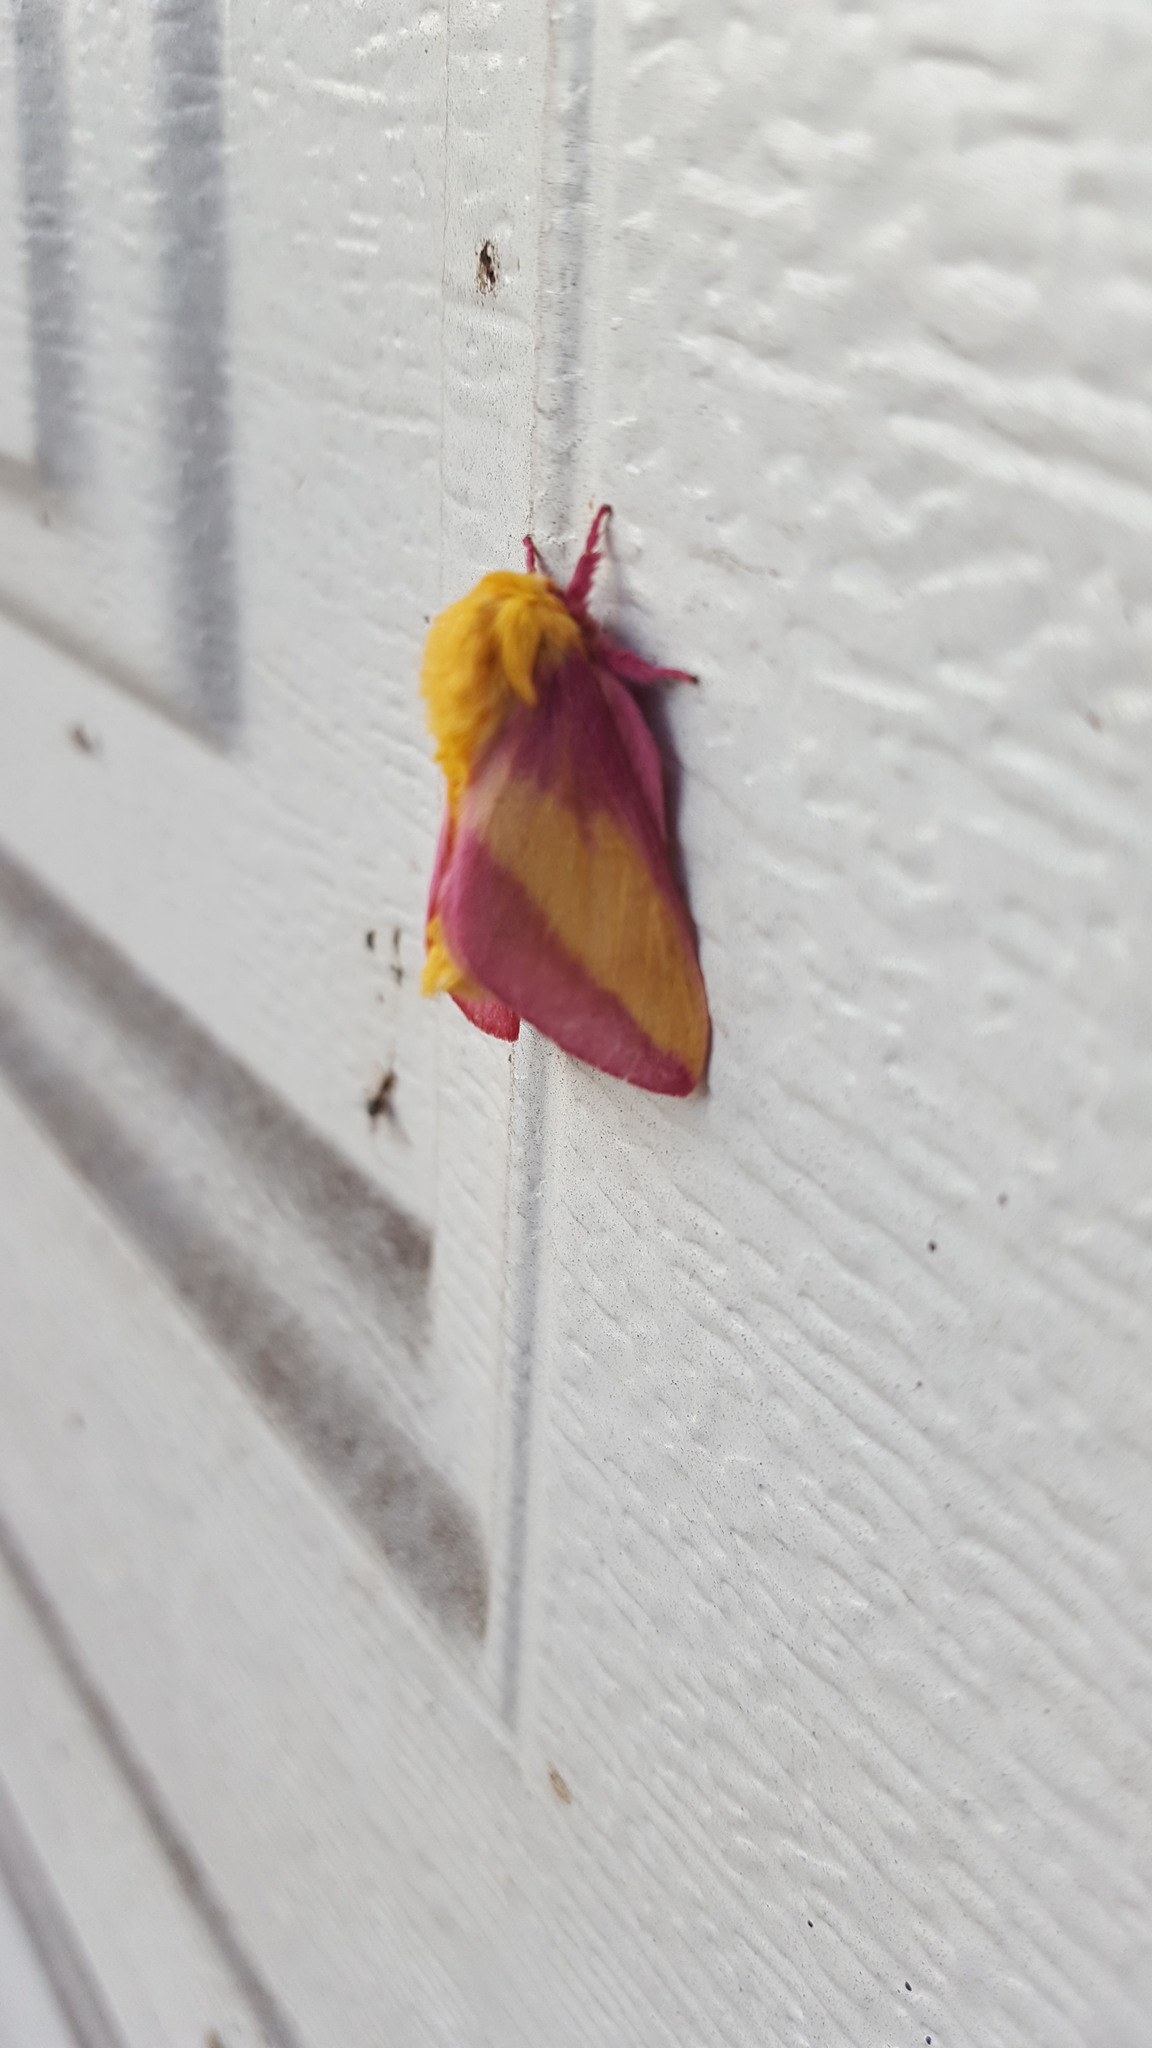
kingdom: Animalia
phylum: Arthropoda
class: Insecta
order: Lepidoptera
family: Saturniidae
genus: Dryocampa
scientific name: Dryocampa rubicunda
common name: Rosy maple moth
